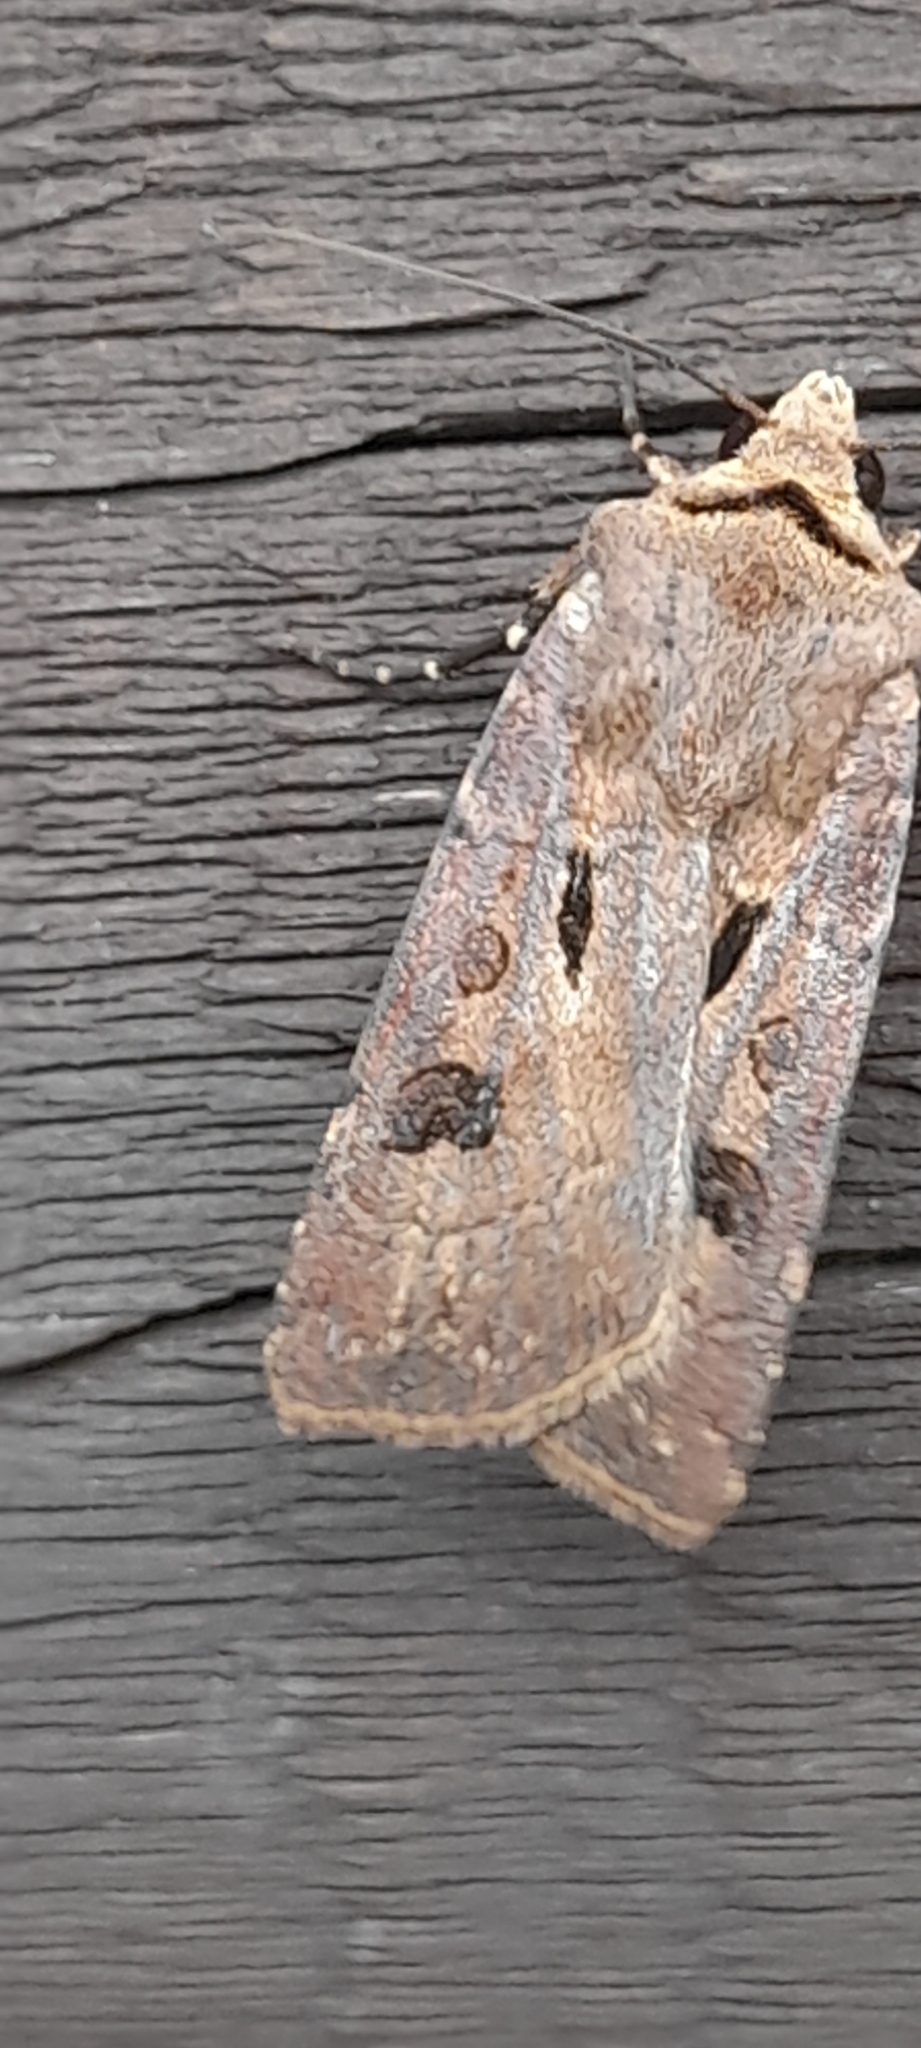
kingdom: Animalia
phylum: Arthropoda
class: Insecta
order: Lepidoptera
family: Noctuidae
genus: Agrotis
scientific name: Agrotis exclamationis
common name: Heart and dart
